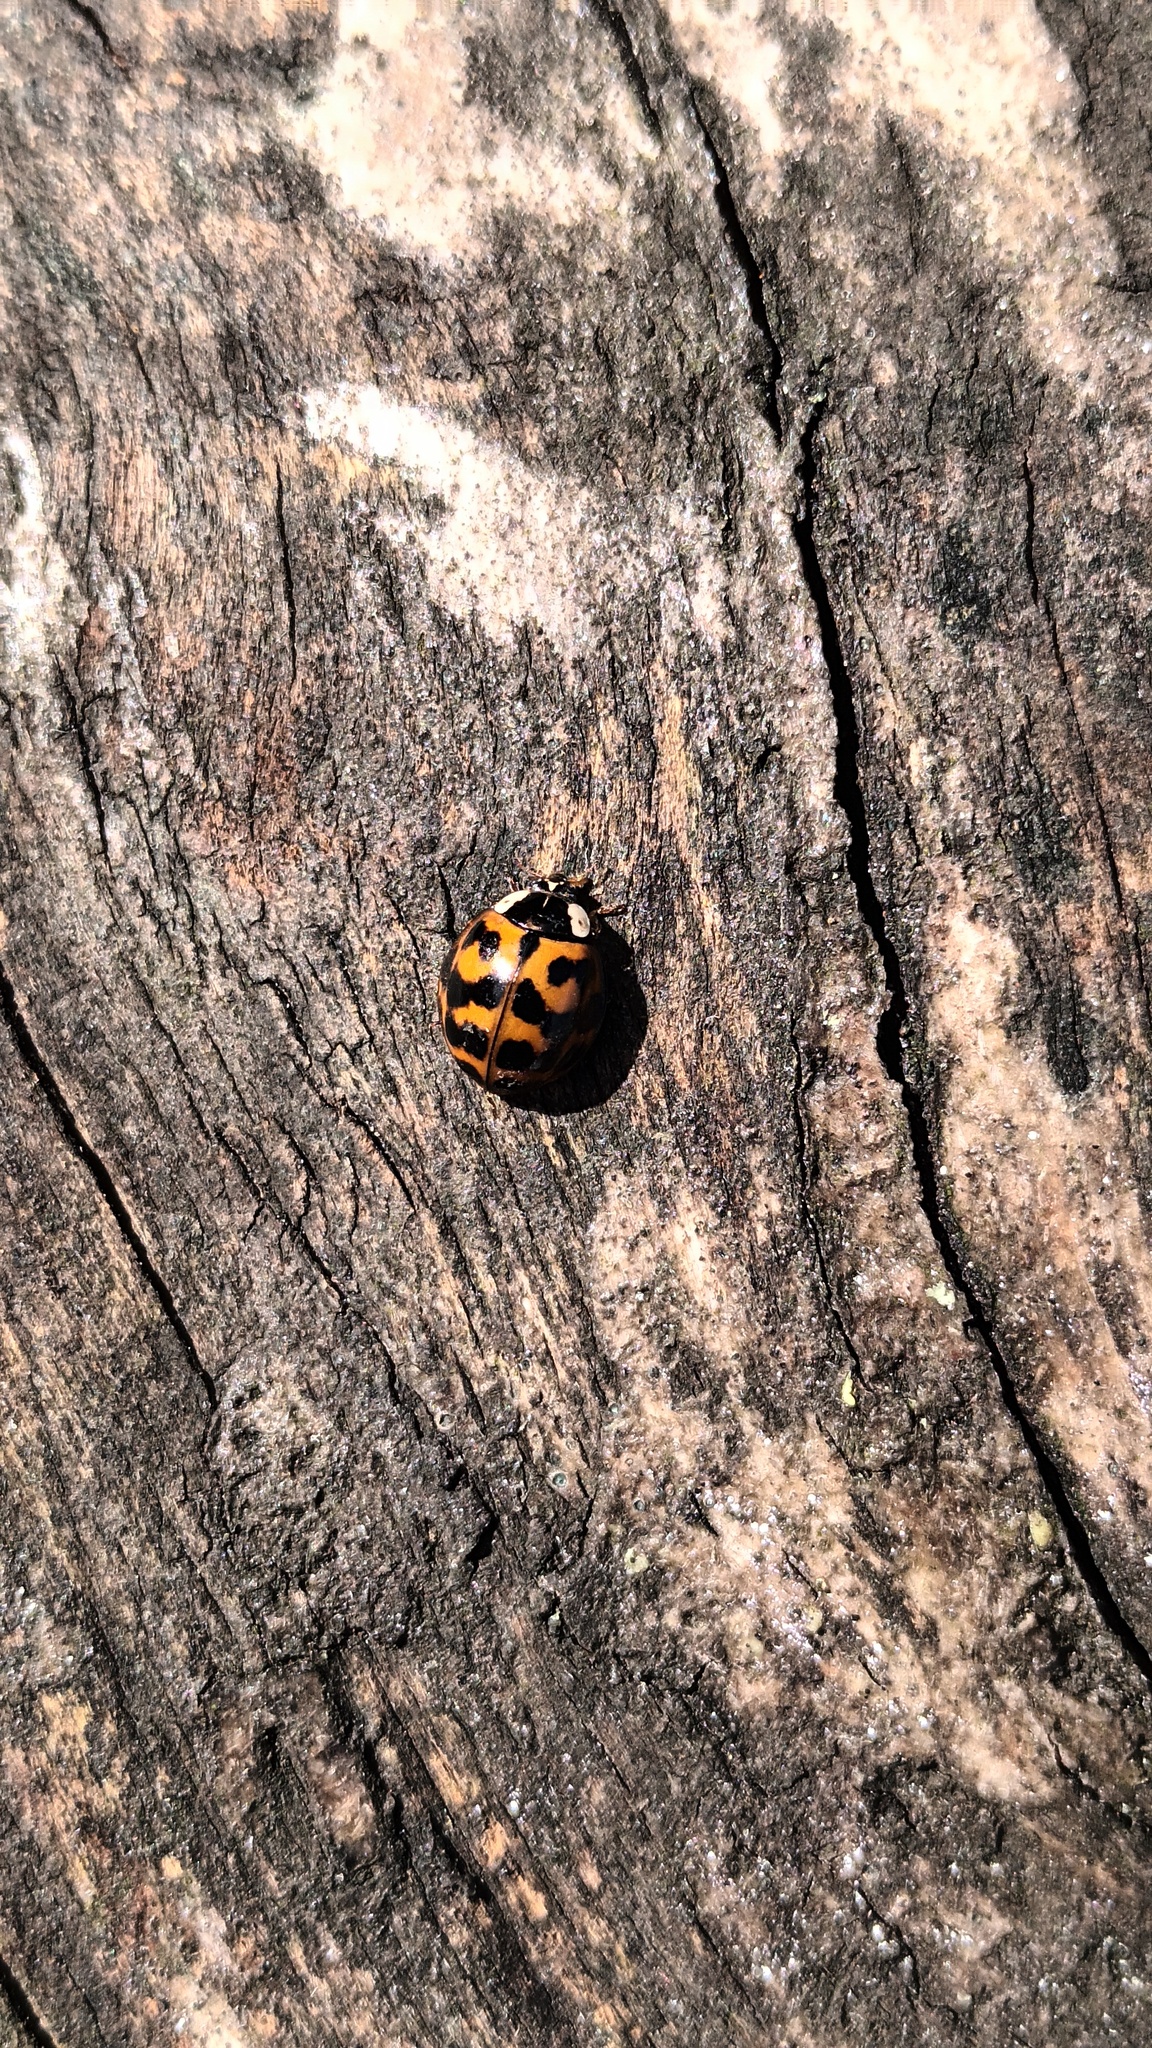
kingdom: Animalia
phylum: Arthropoda
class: Insecta
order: Coleoptera
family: Coccinellidae
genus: Harmonia
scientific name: Harmonia axyridis
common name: Harlequin ladybird
